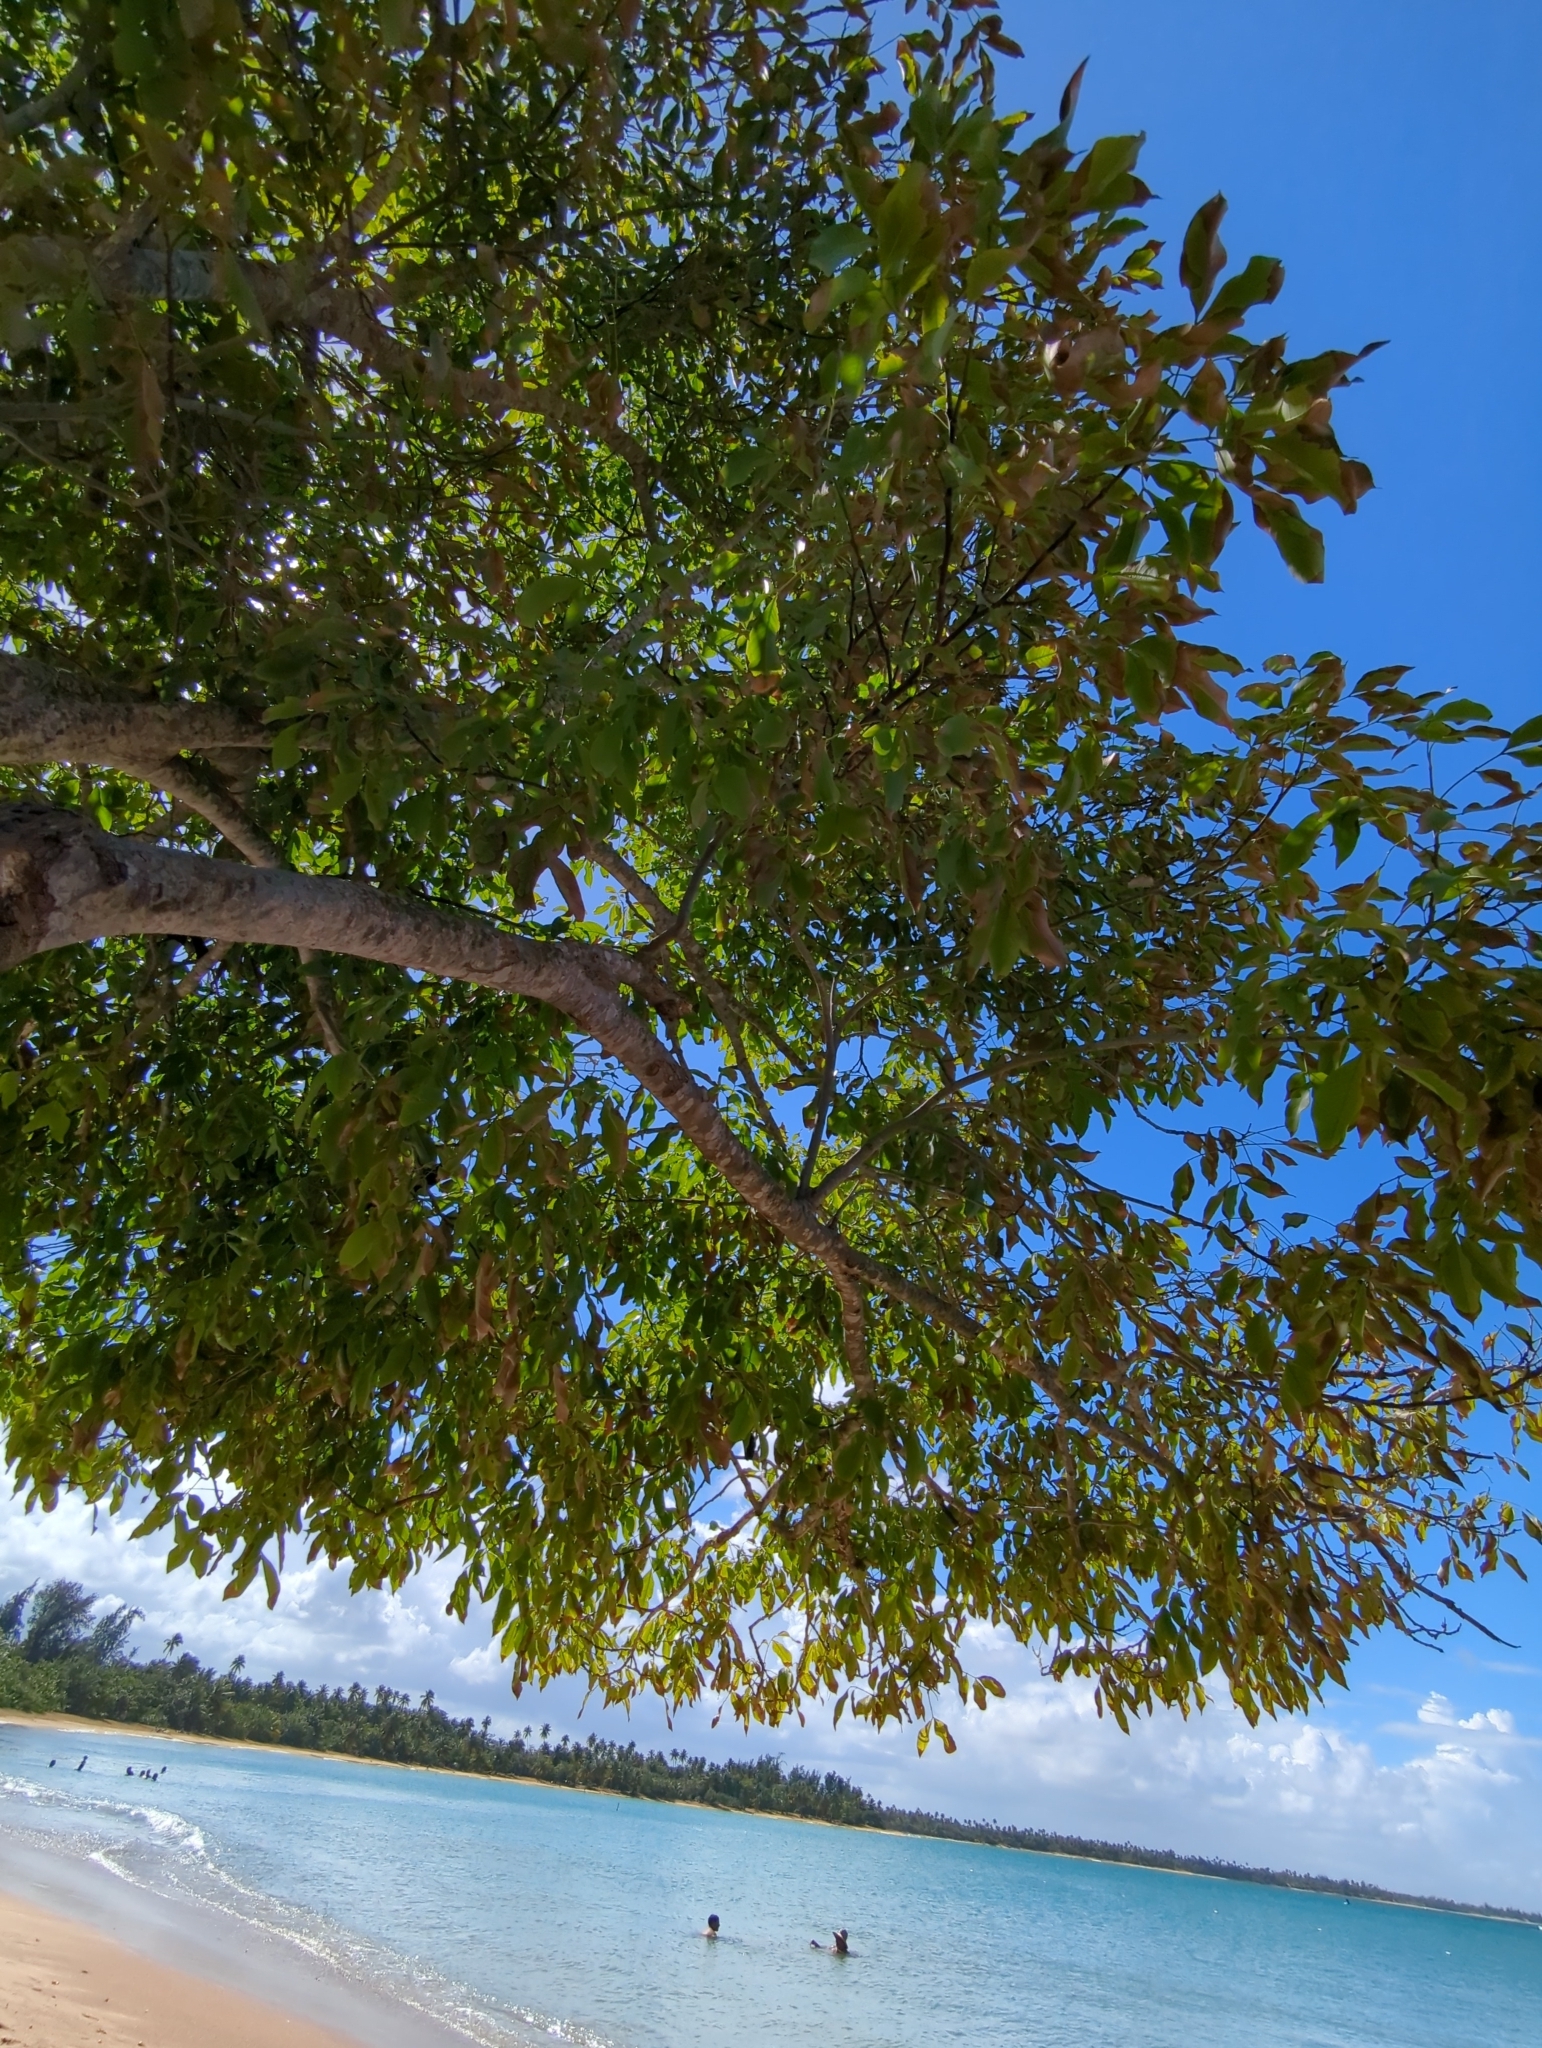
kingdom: Plantae
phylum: Tracheophyta
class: Magnoliopsida
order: Sapindales
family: Sapindaceae
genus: Melicoccus
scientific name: Melicoccus bijugatus
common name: Spanish lime
